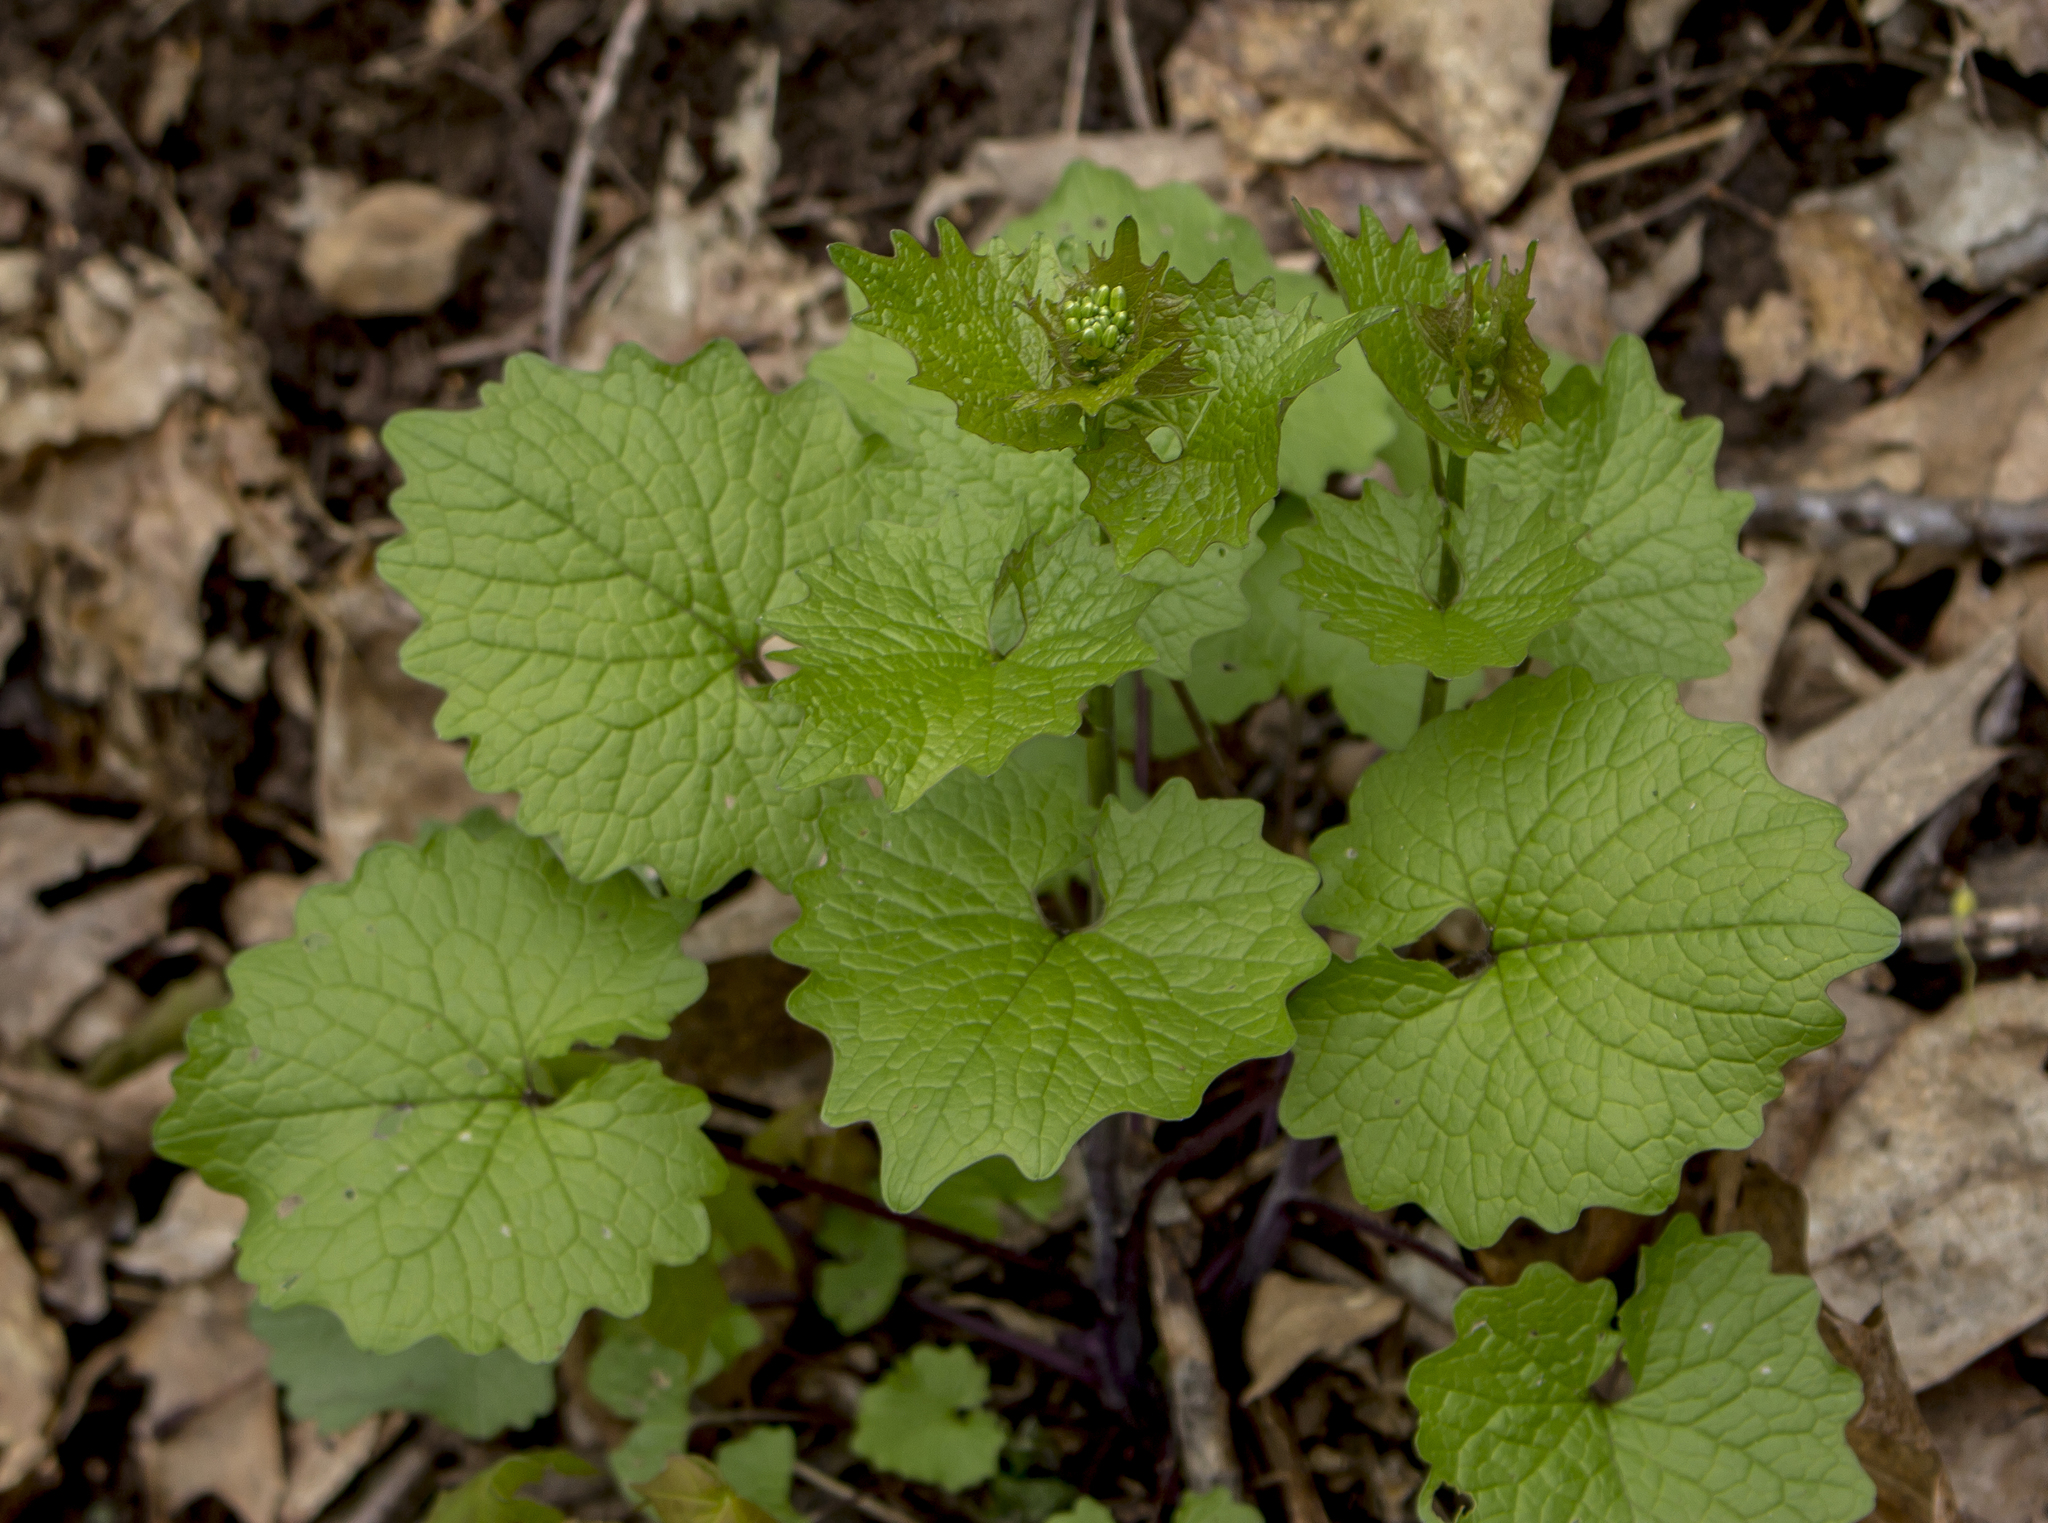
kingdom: Plantae
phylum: Tracheophyta
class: Magnoliopsida
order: Brassicales
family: Brassicaceae
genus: Alliaria
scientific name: Alliaria petiolata
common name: Garlic mustard
